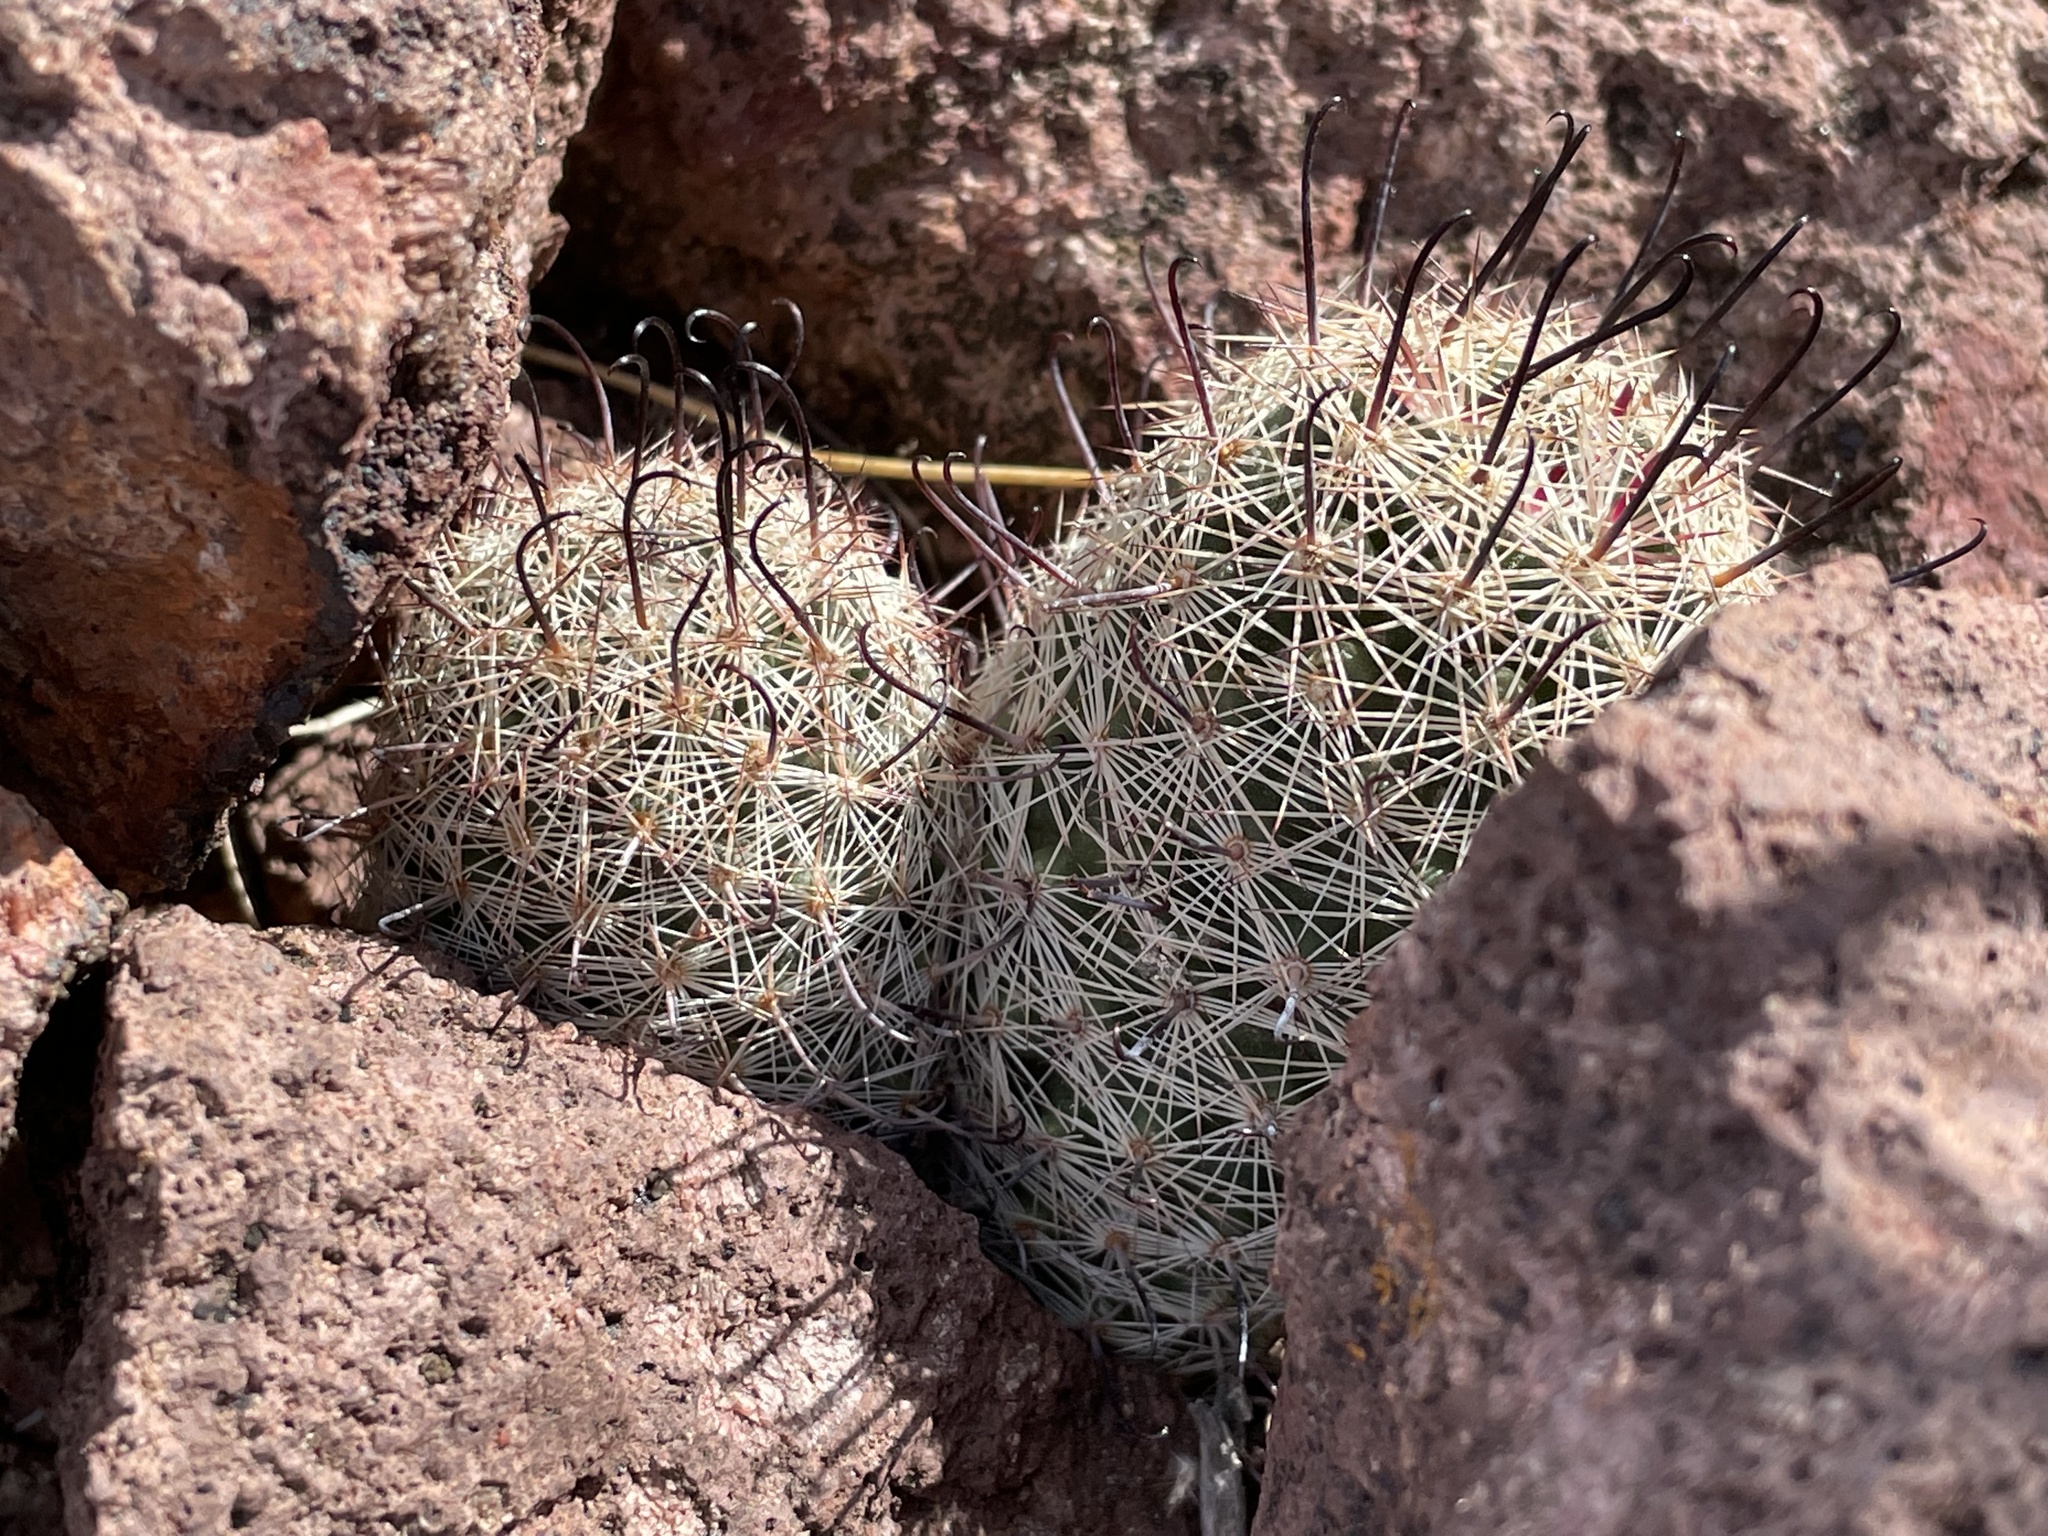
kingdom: Plantae
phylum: Tracheophyta
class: Magnoliopsida
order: Caryophyllales
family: Cactaceae
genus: Cochemiea
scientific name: Cochemiea grahamii
